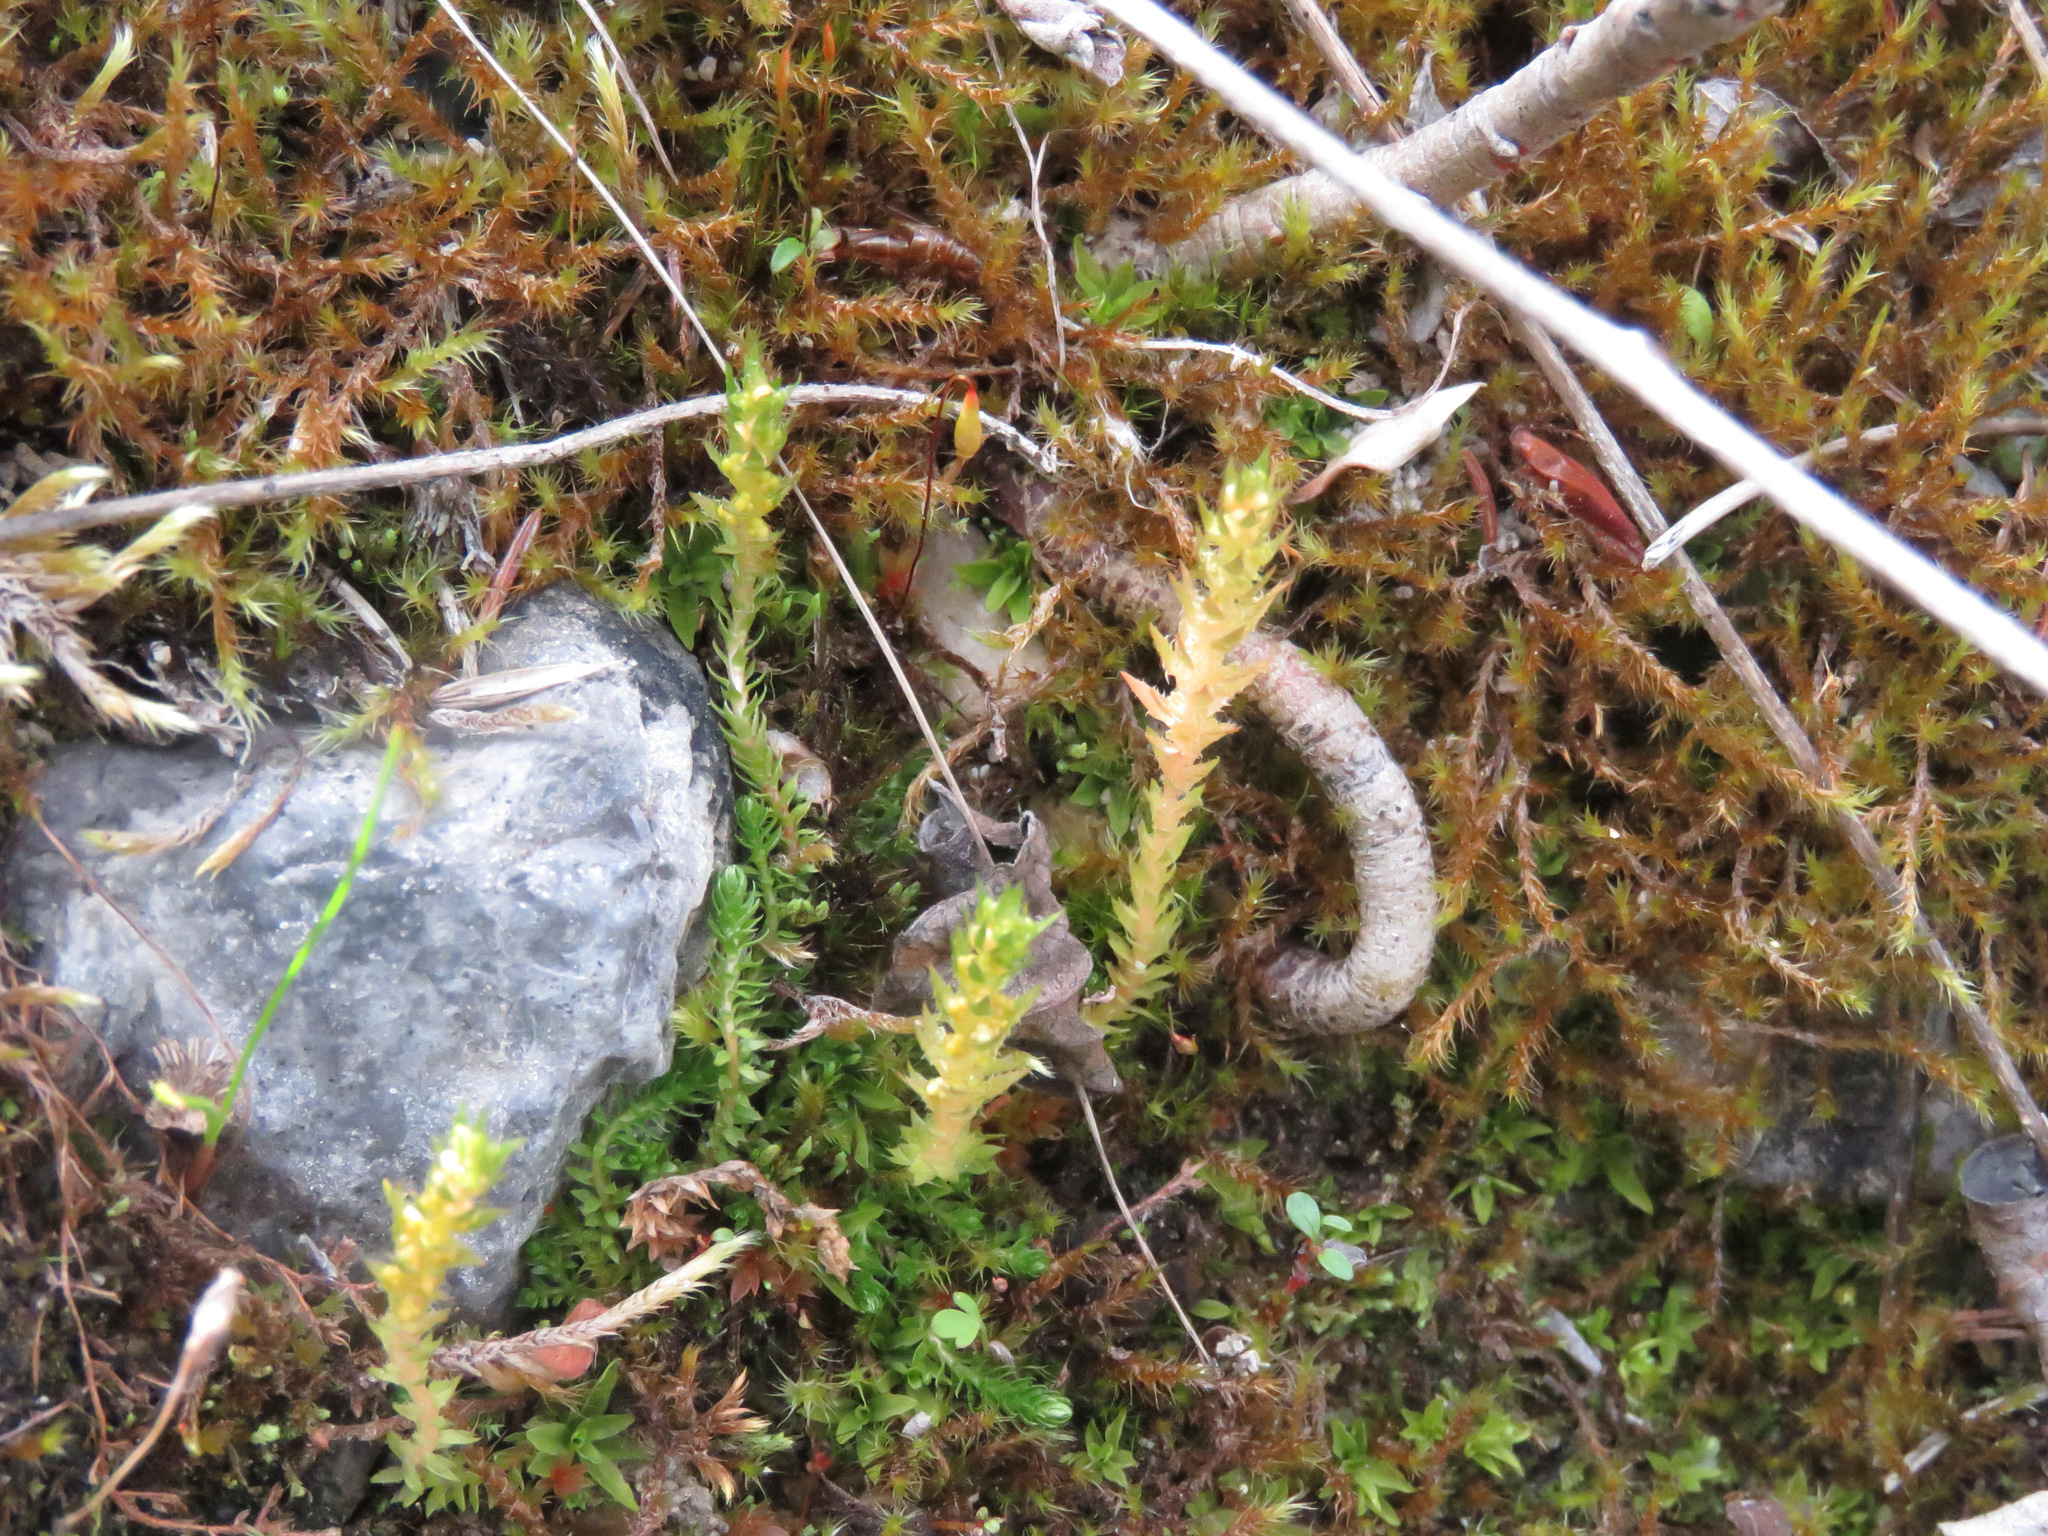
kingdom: Plantae
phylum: Tracheophyta
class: Lycopodiopsida
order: Selaginellales
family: Selaginellaceae
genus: Selaginella
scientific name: Selaginella selaginoides
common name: Prickly mountain-moss
